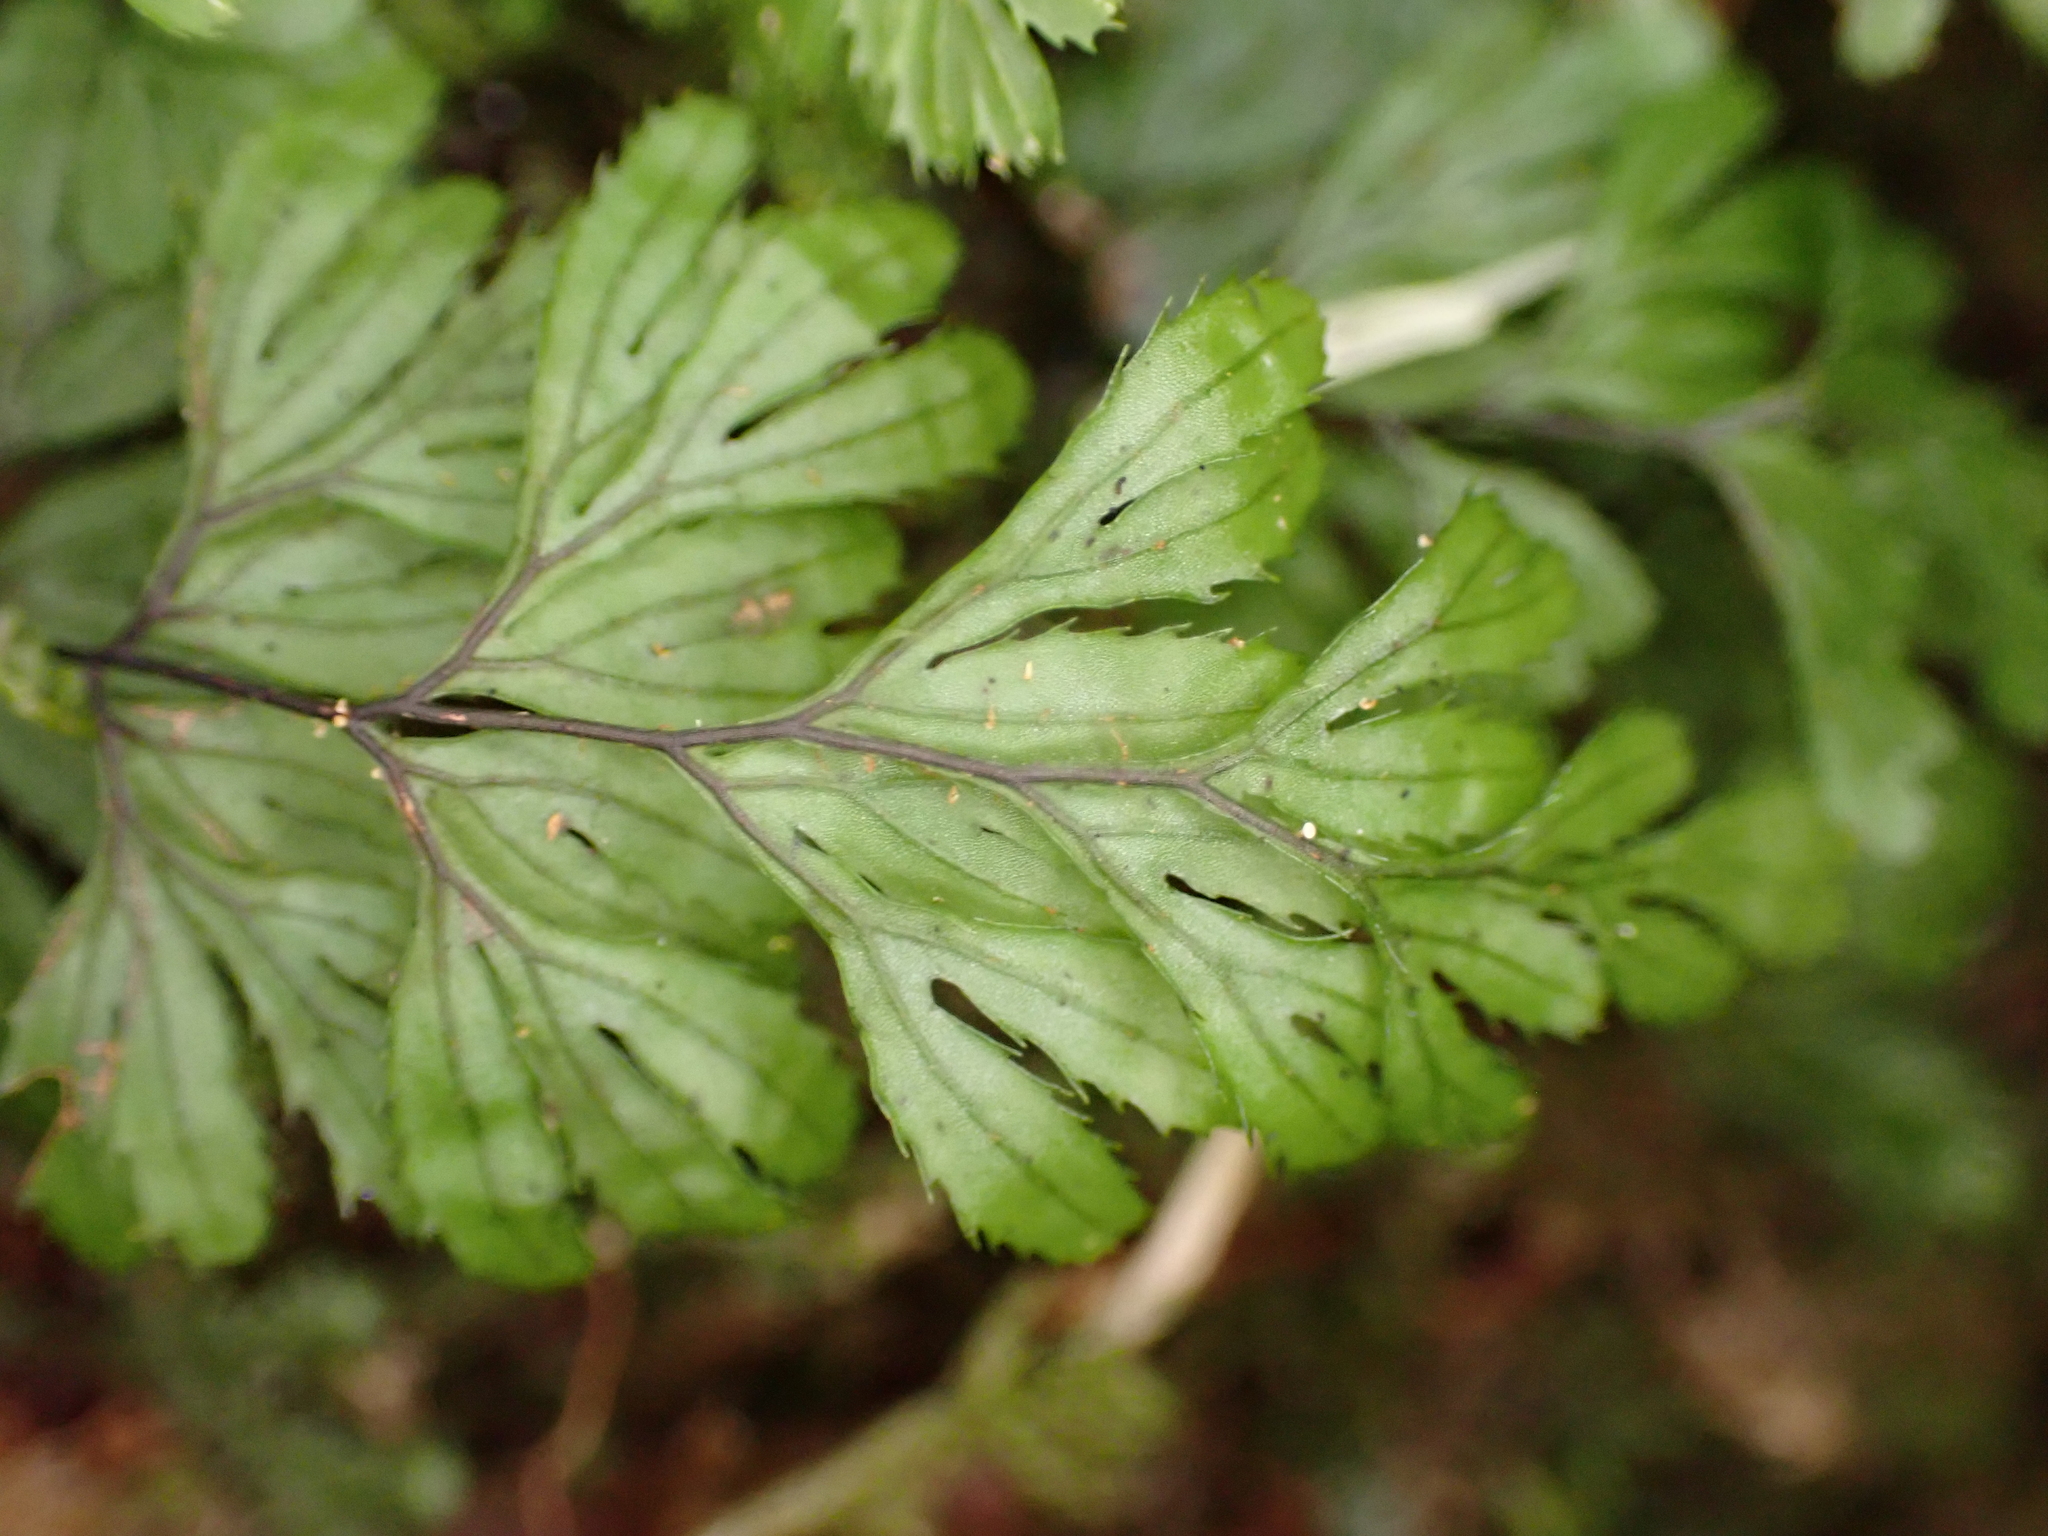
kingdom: Plantae
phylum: Tracheophyta
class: Polypodiopsida
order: Hymenophyllales
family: Hymenophyllaceae
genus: Hymenophyllum
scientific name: Hymenophyllum revolutum
